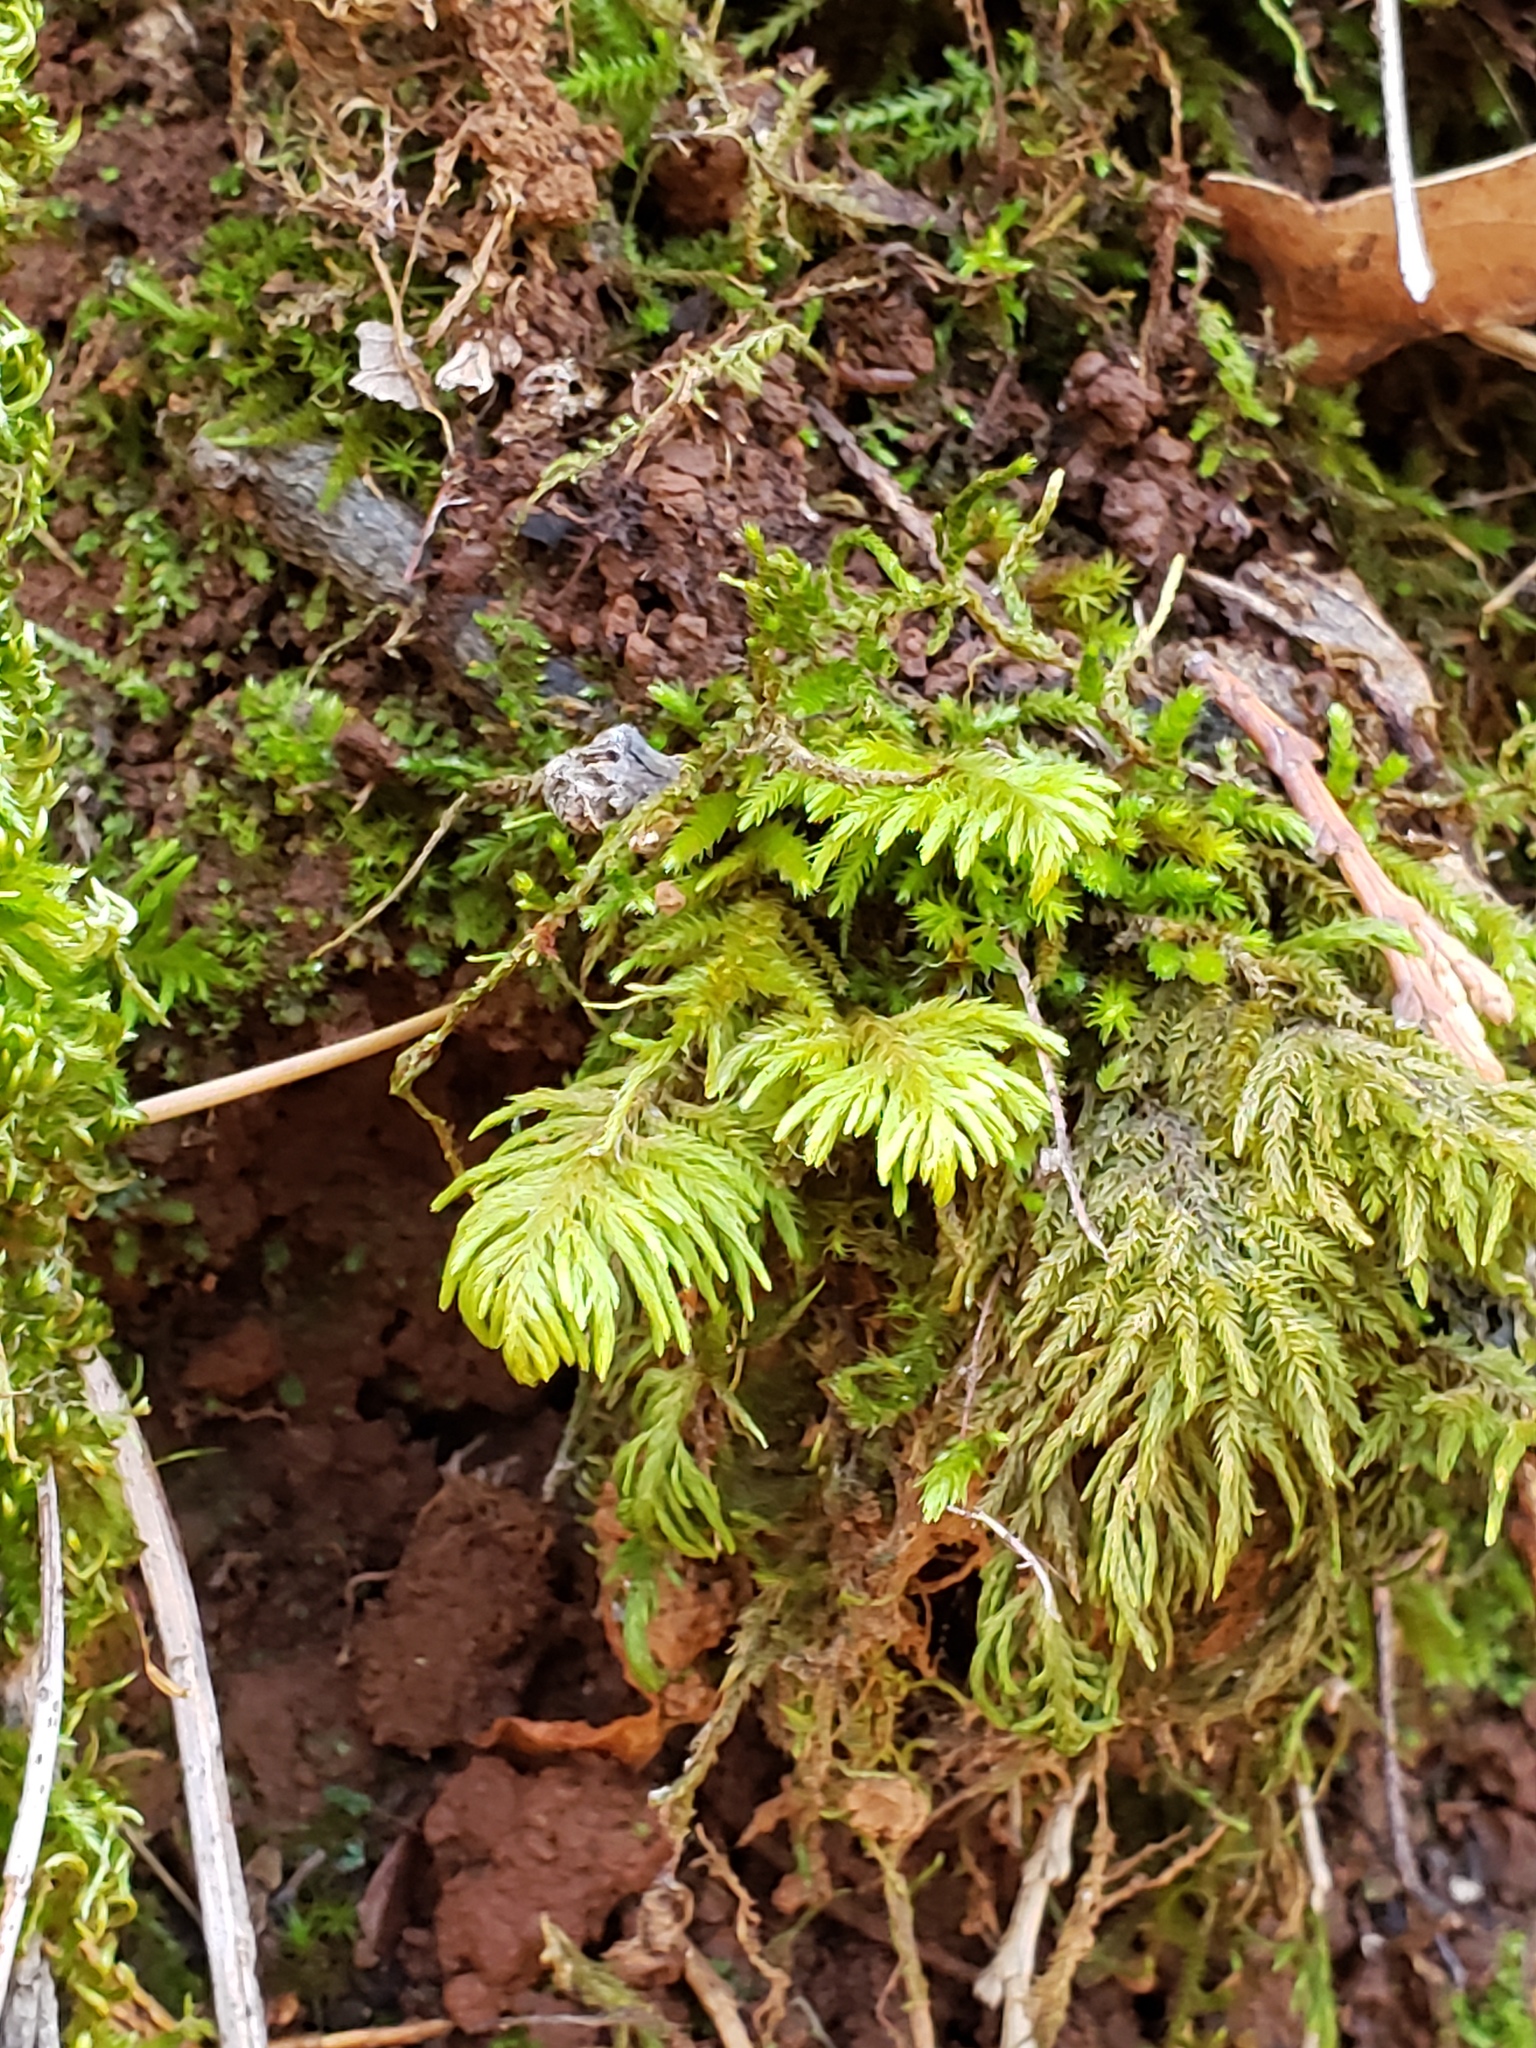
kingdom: Plantae
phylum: Bryophyta
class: Bryopsida
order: Hypnales
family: Cryphaeaceae
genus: Dendroalsia
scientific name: Dendroalsia abietina
